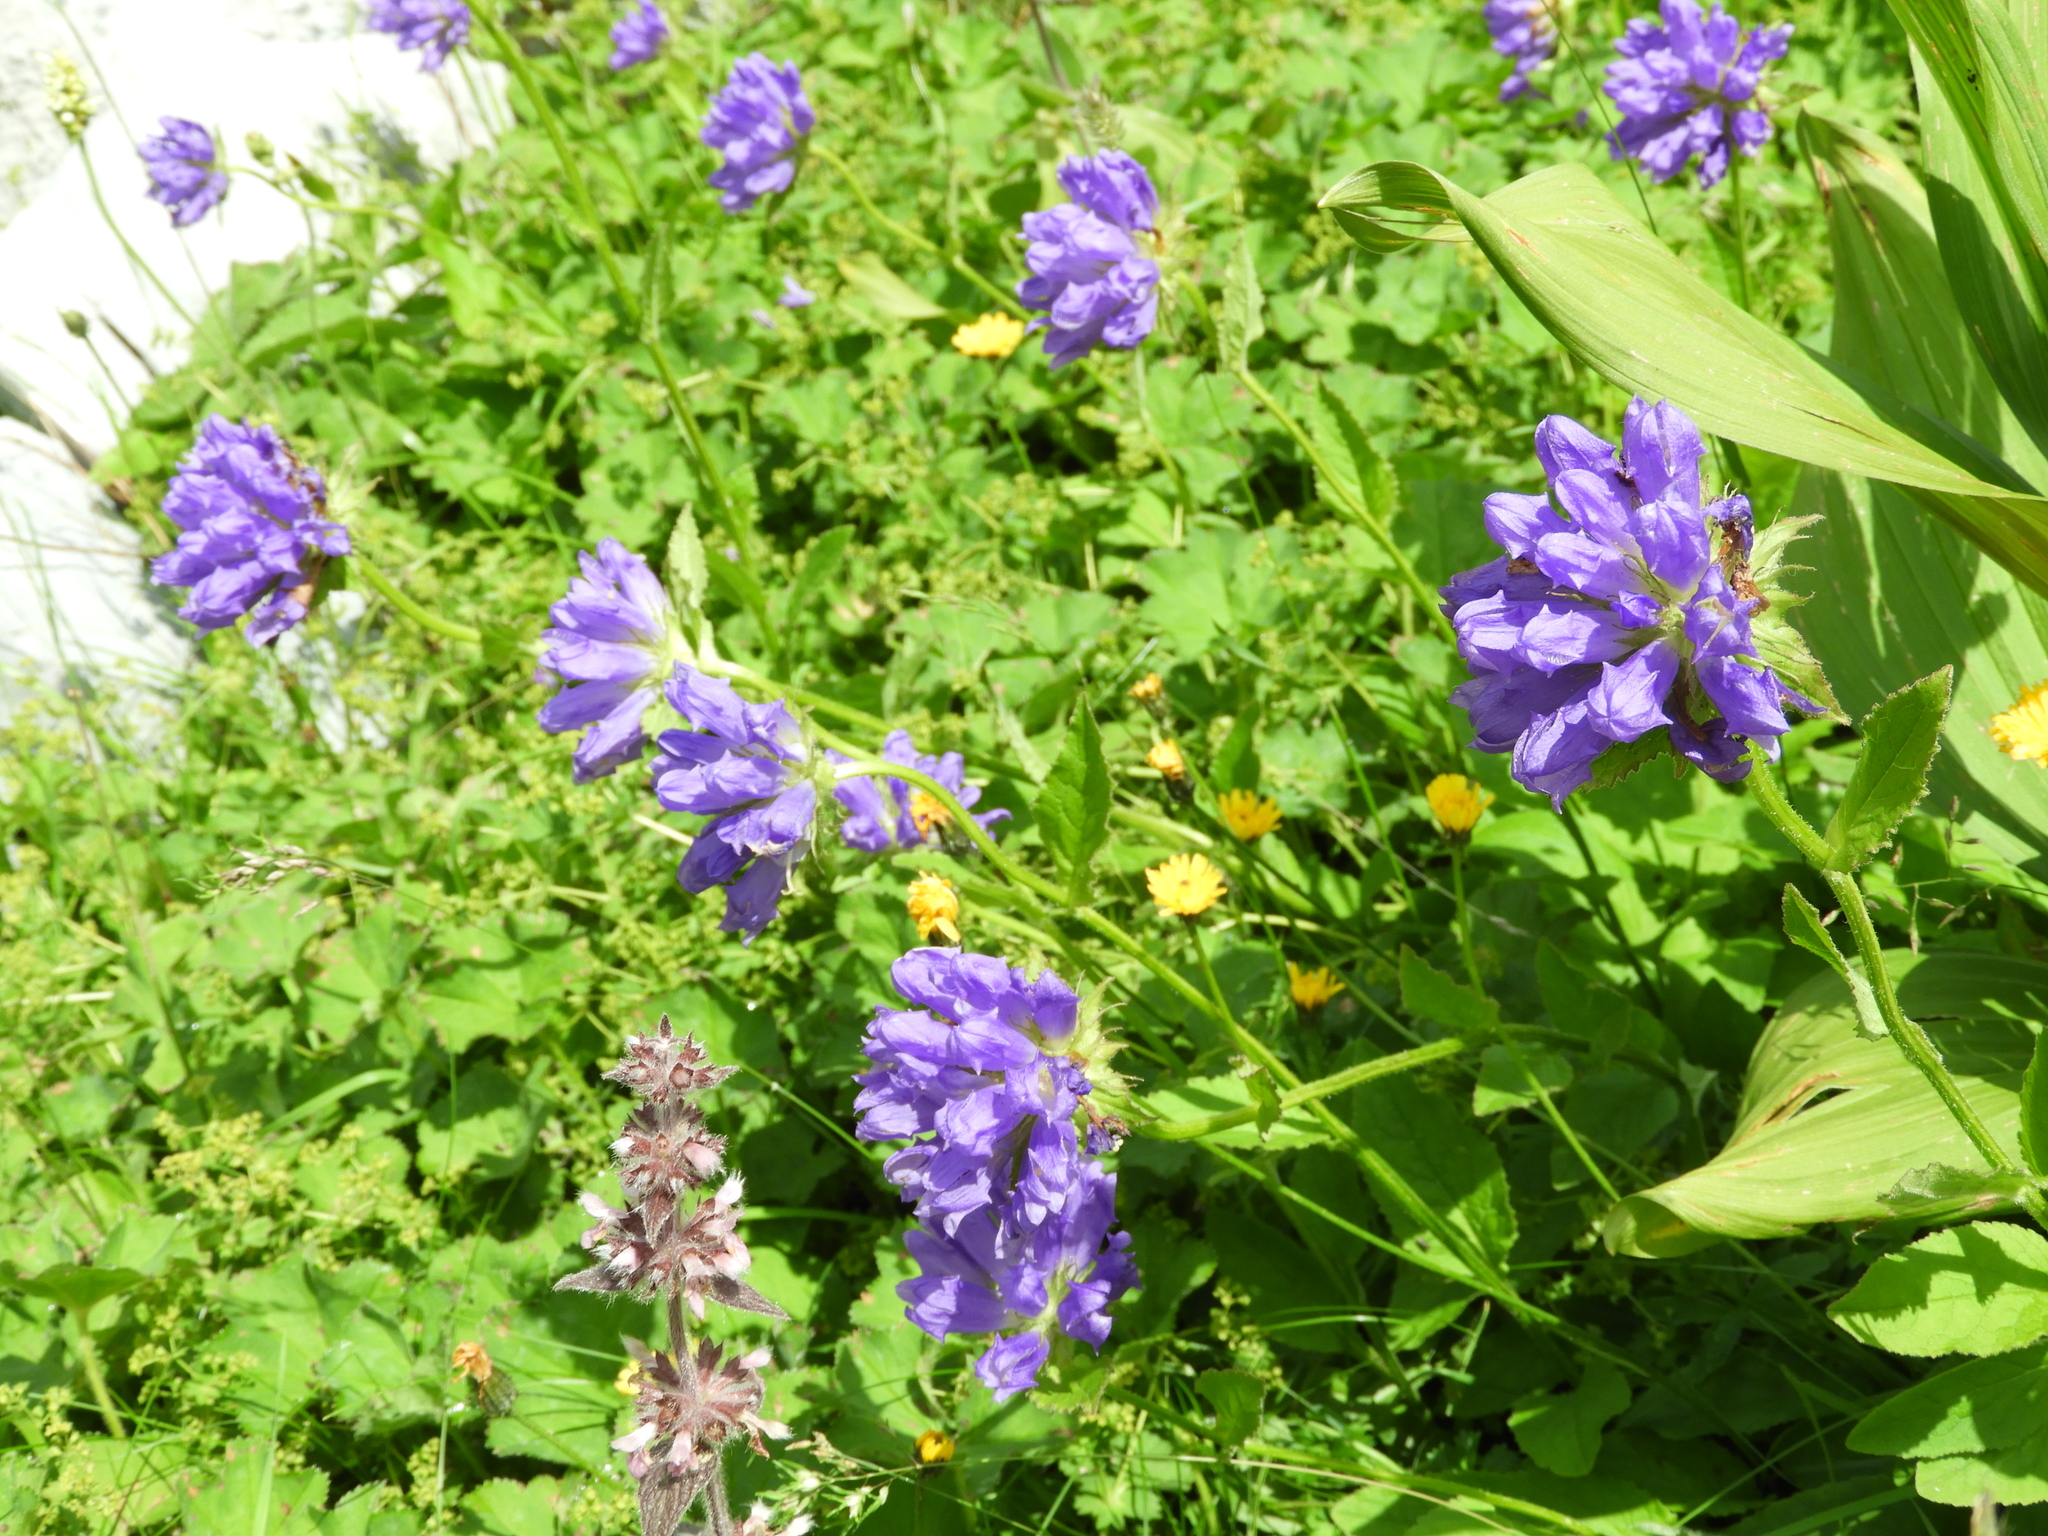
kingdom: Plantae
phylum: Tracheophyta
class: Magnoliopsida
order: Asterales
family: Campanulaceae
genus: Campanula
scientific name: Campanula glomerata
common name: Clustered bellflower
